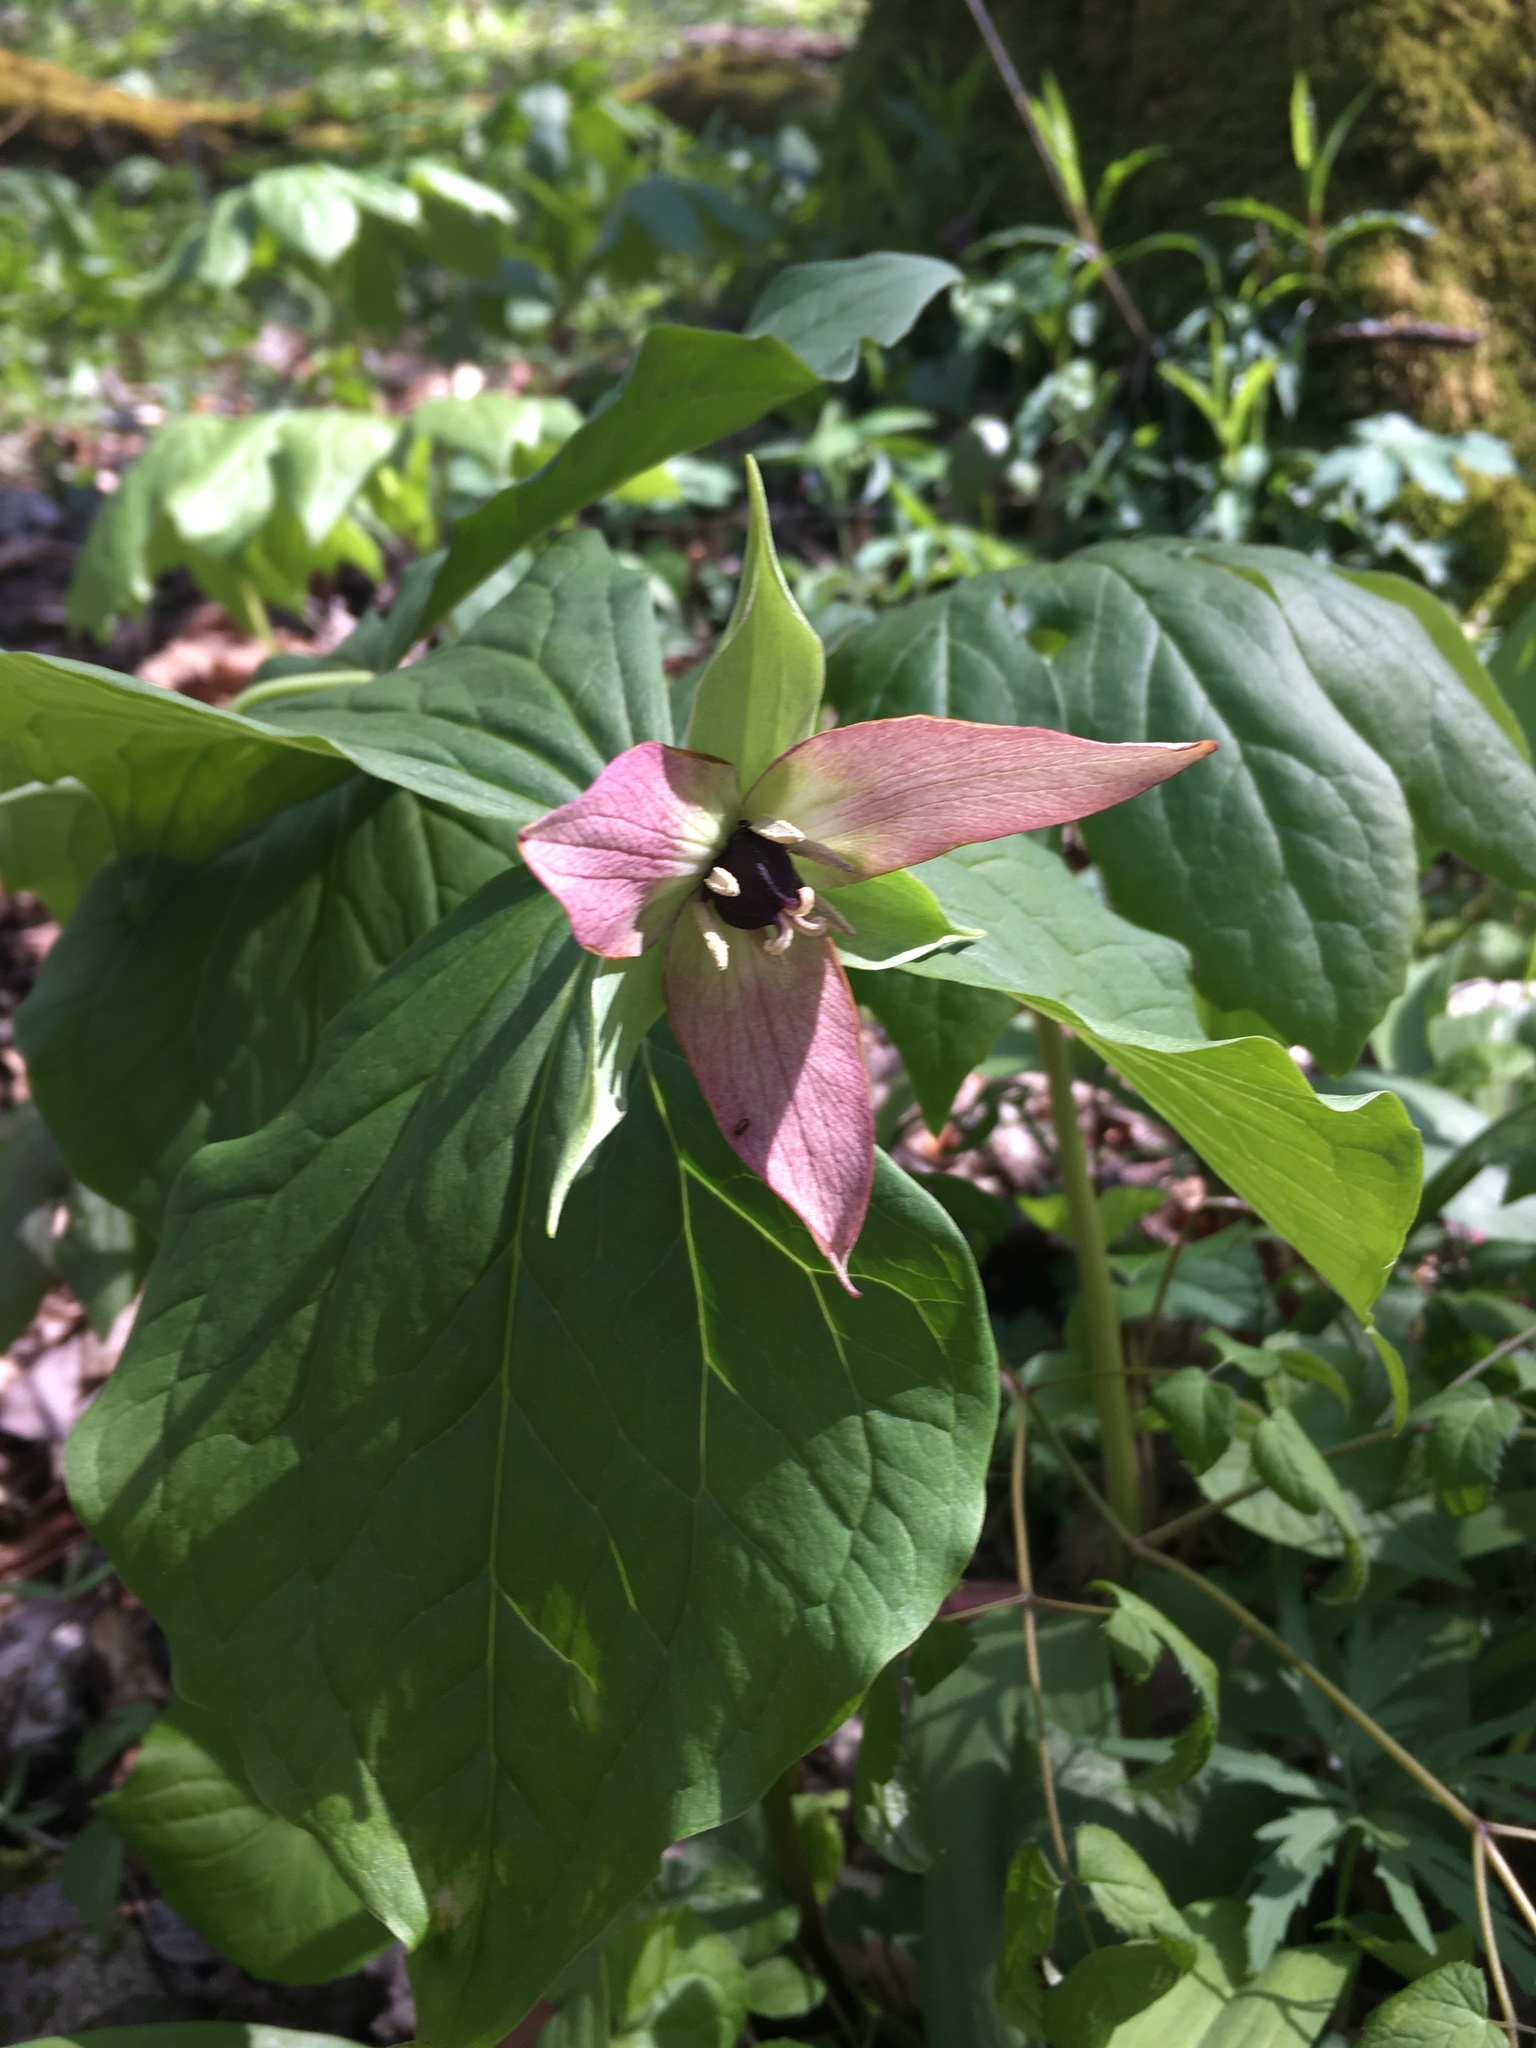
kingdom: Plantae
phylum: Tracheophyta
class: Liliopsida
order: Liliales
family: Melanthiaceae
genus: Trillium
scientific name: Trillium erectum
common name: Purple trillium
